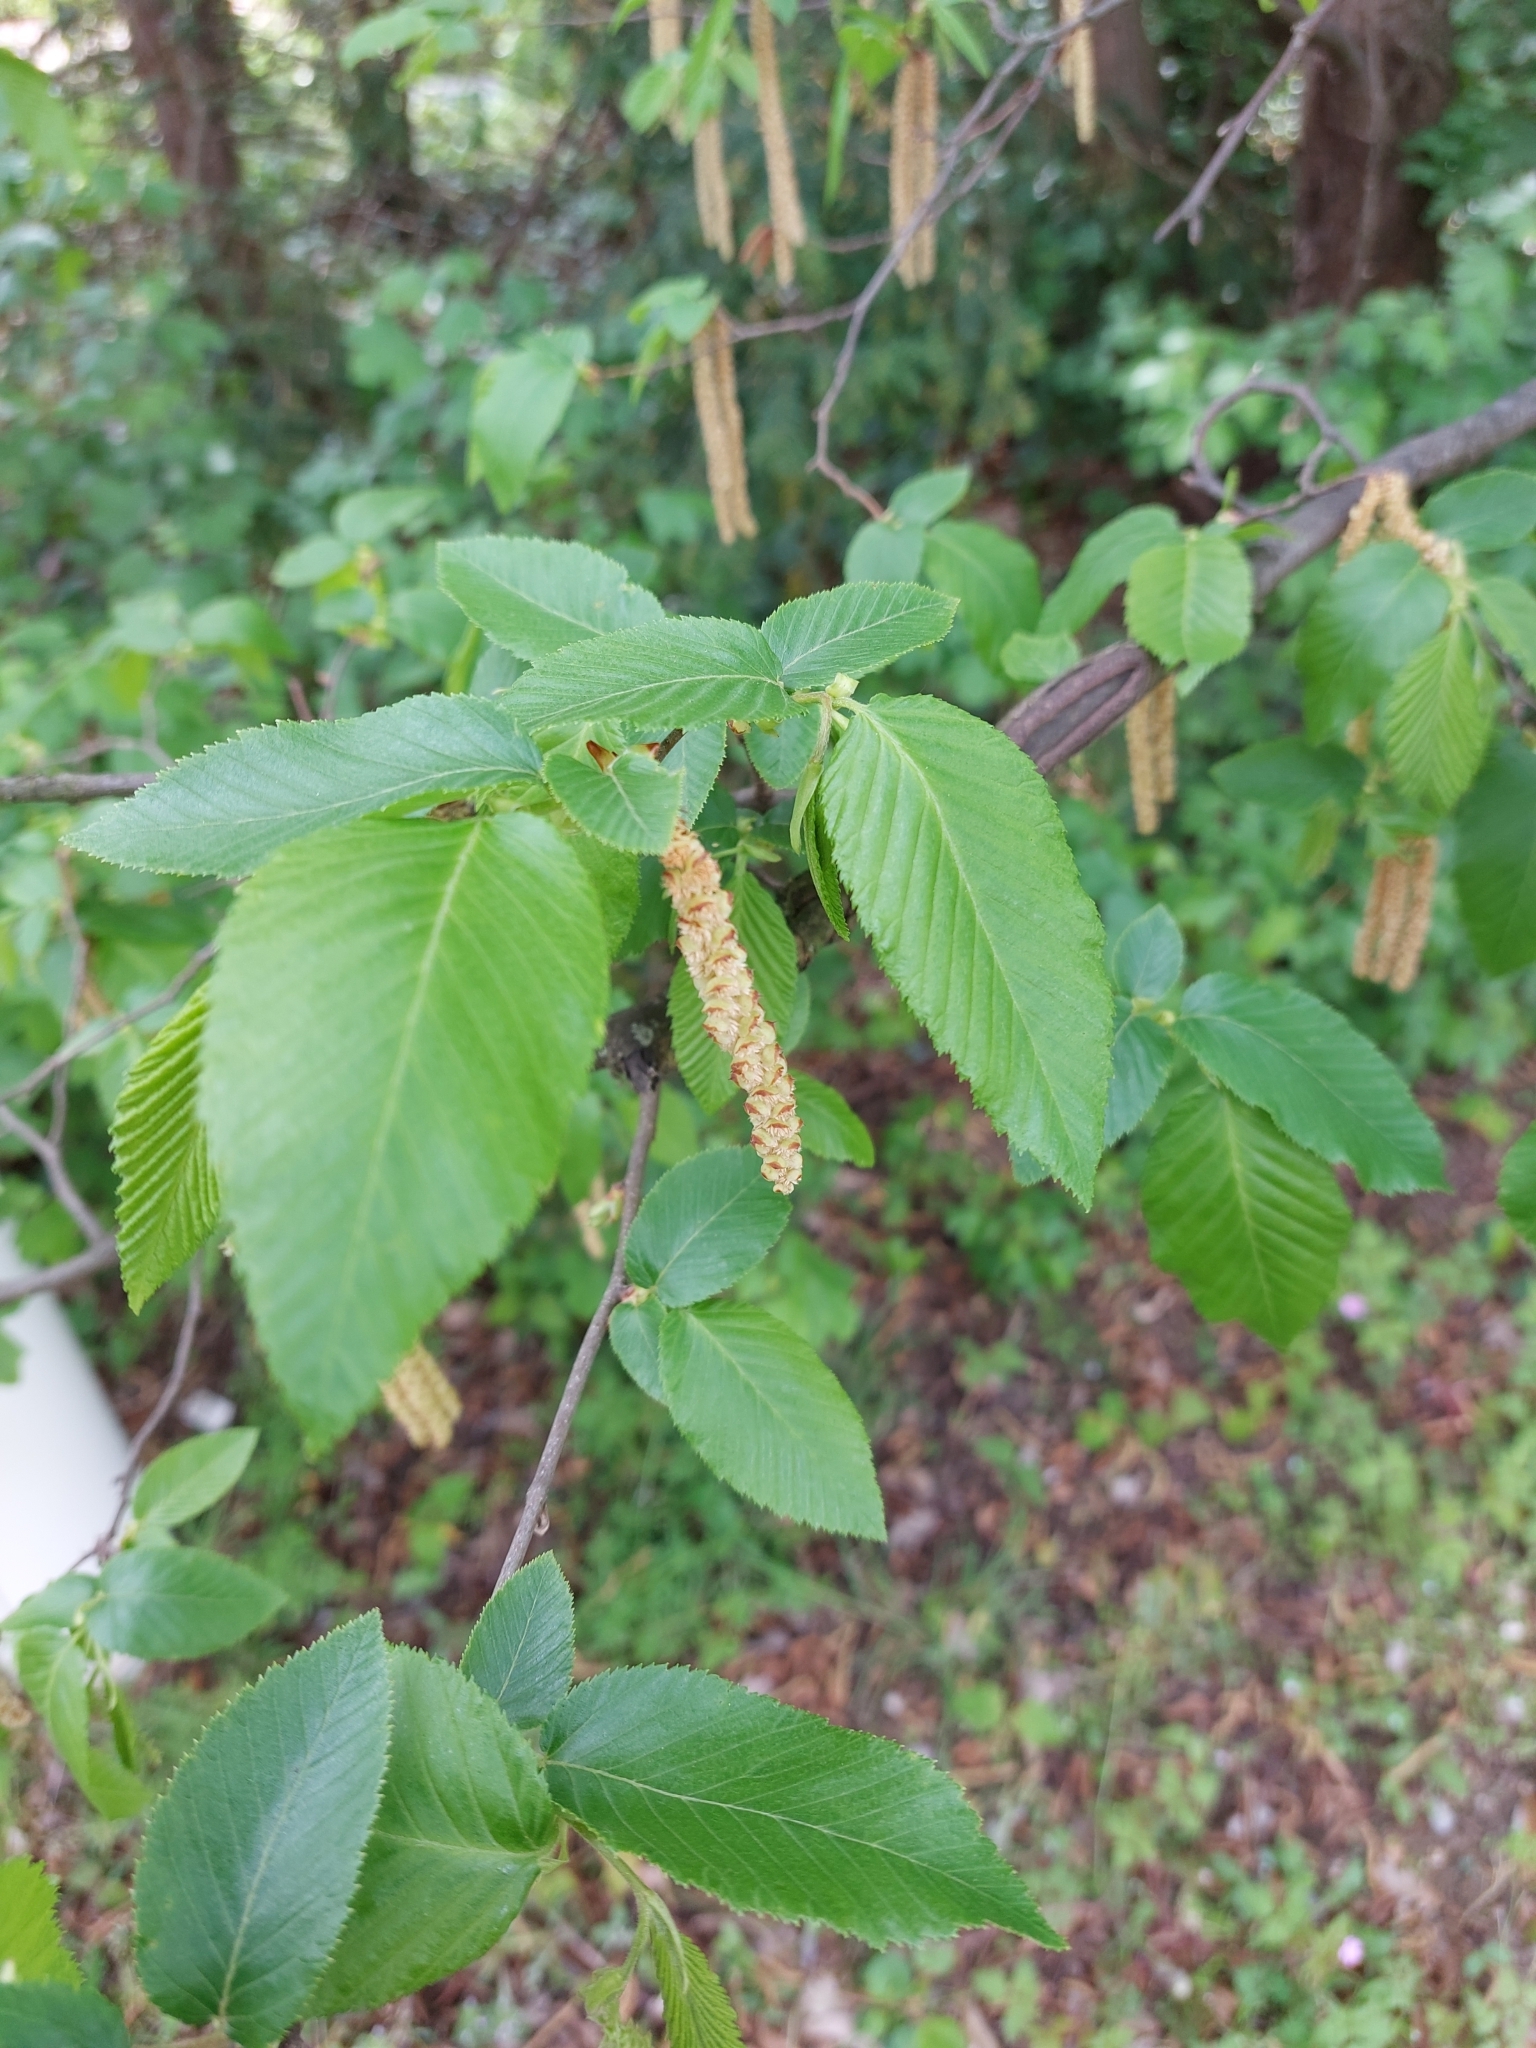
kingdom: Plantae
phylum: Tracheophyta
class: Magnoliopsida
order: Fagales
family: Betulaceae
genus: Ostrya
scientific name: Ostrya carpinifolia
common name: European hop-hornbeam
